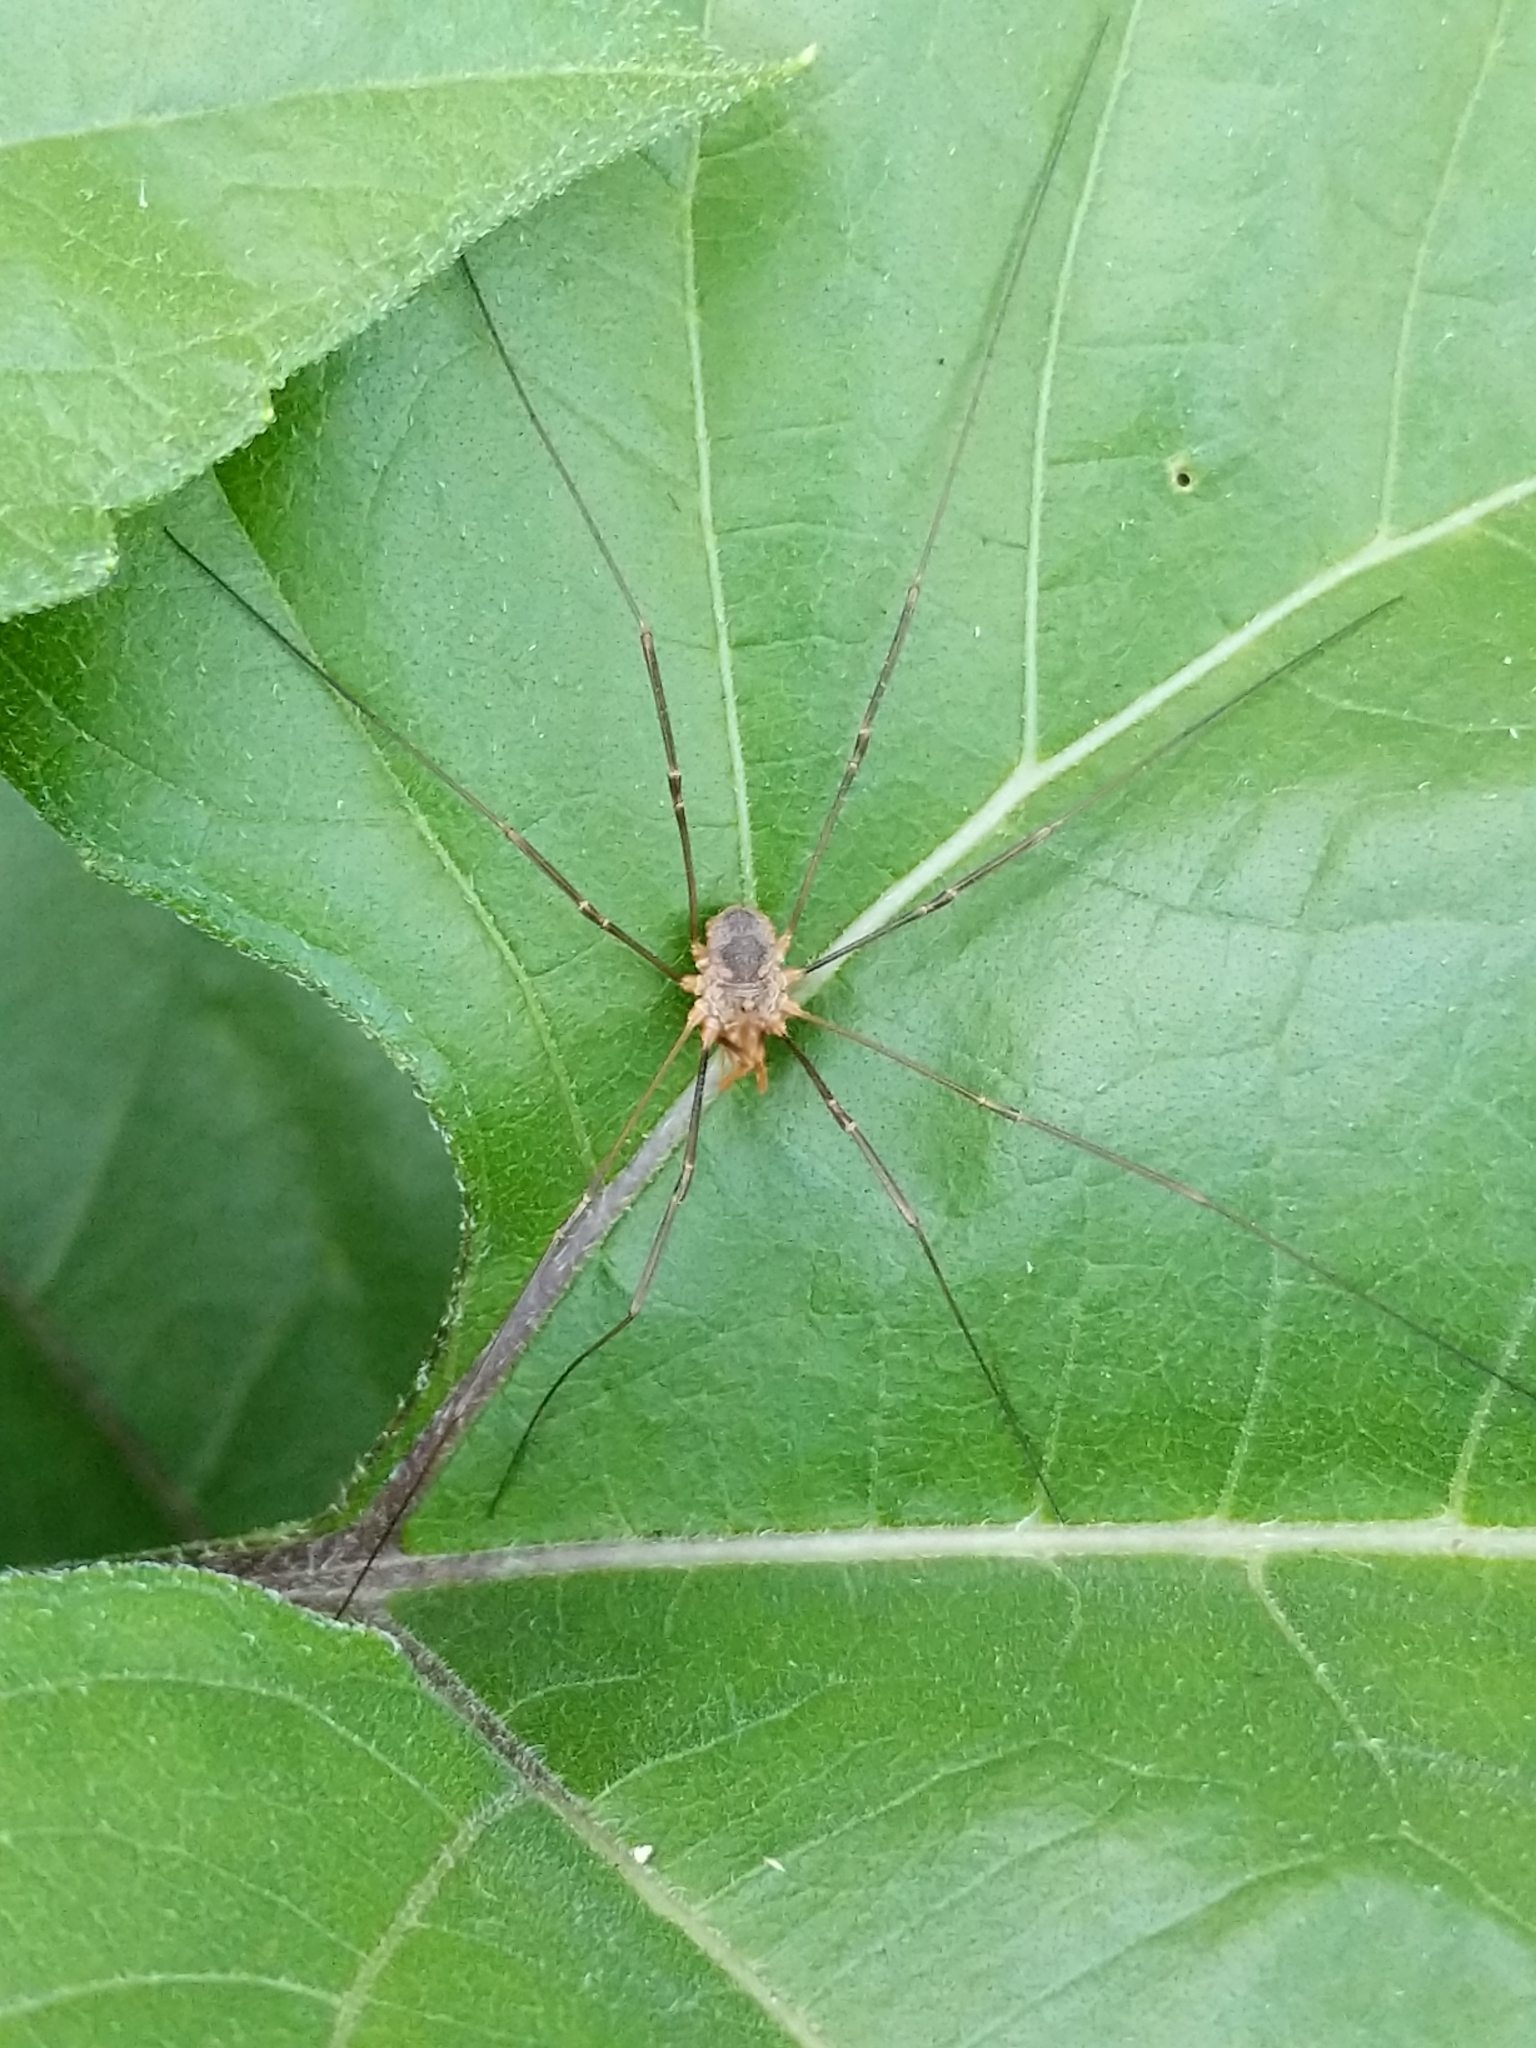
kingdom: Animalia
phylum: Arthropoda
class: Arachnida
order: Opiliones
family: Phalangiidae
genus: Phalangium
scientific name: Phalangium opilio
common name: Daddy longleg
